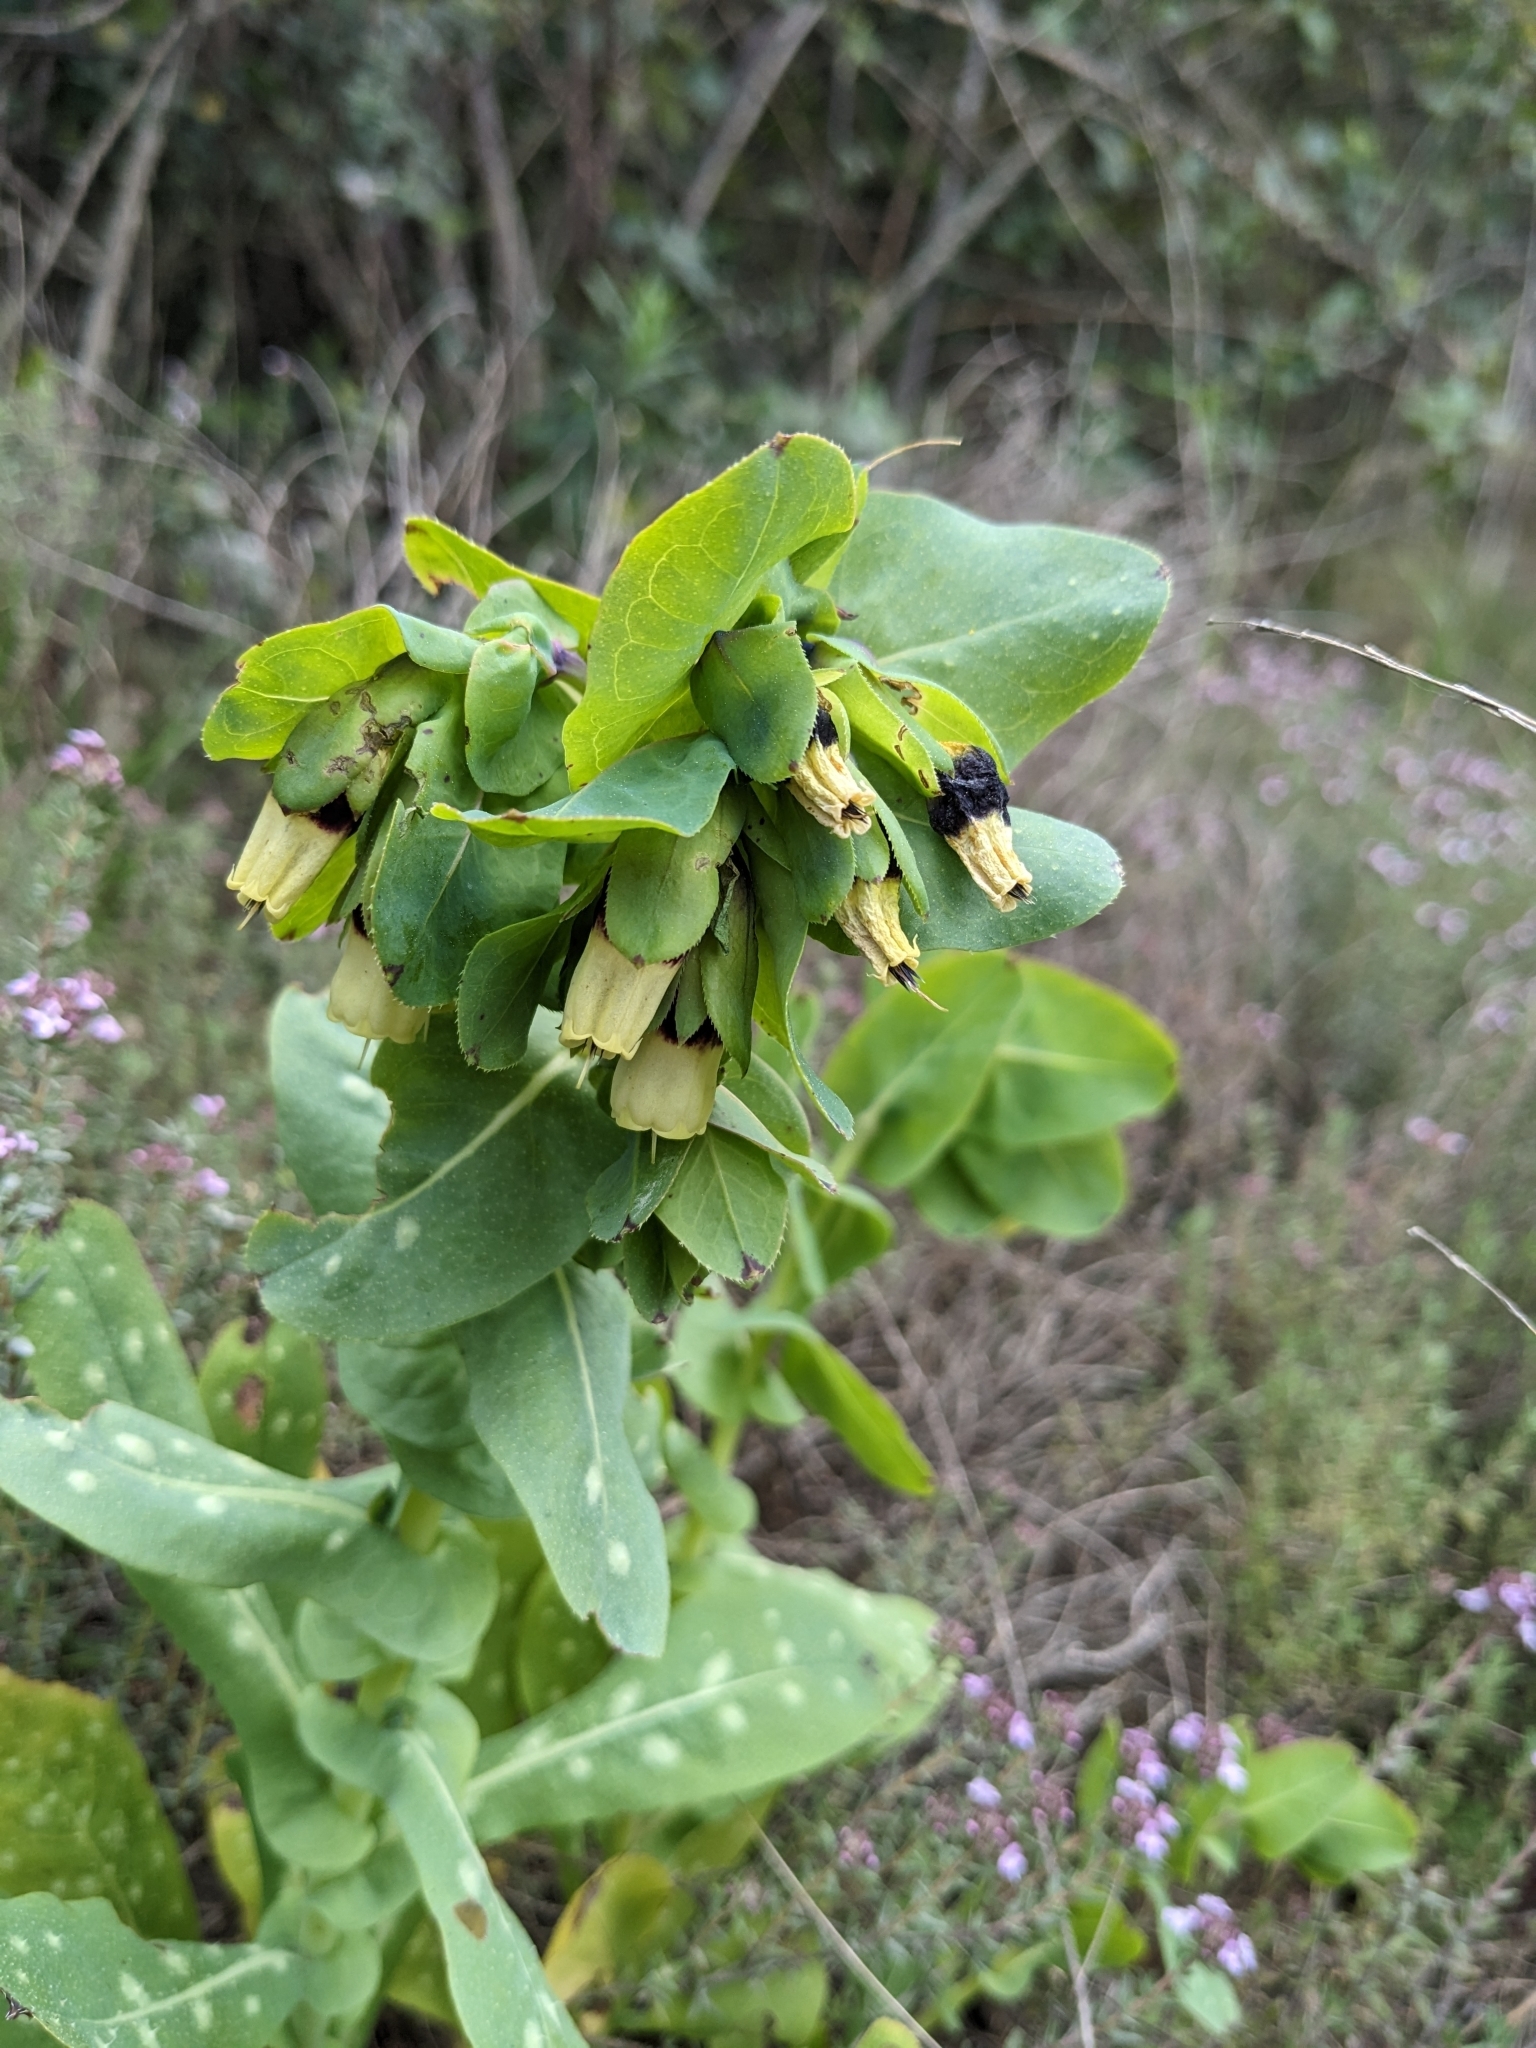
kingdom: Plantae
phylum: Tracheophyta
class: Magnoliopsida
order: Boraginales
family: Boraginaceae
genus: Cerinthe
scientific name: Cerinthe major
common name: Greater honeywort
